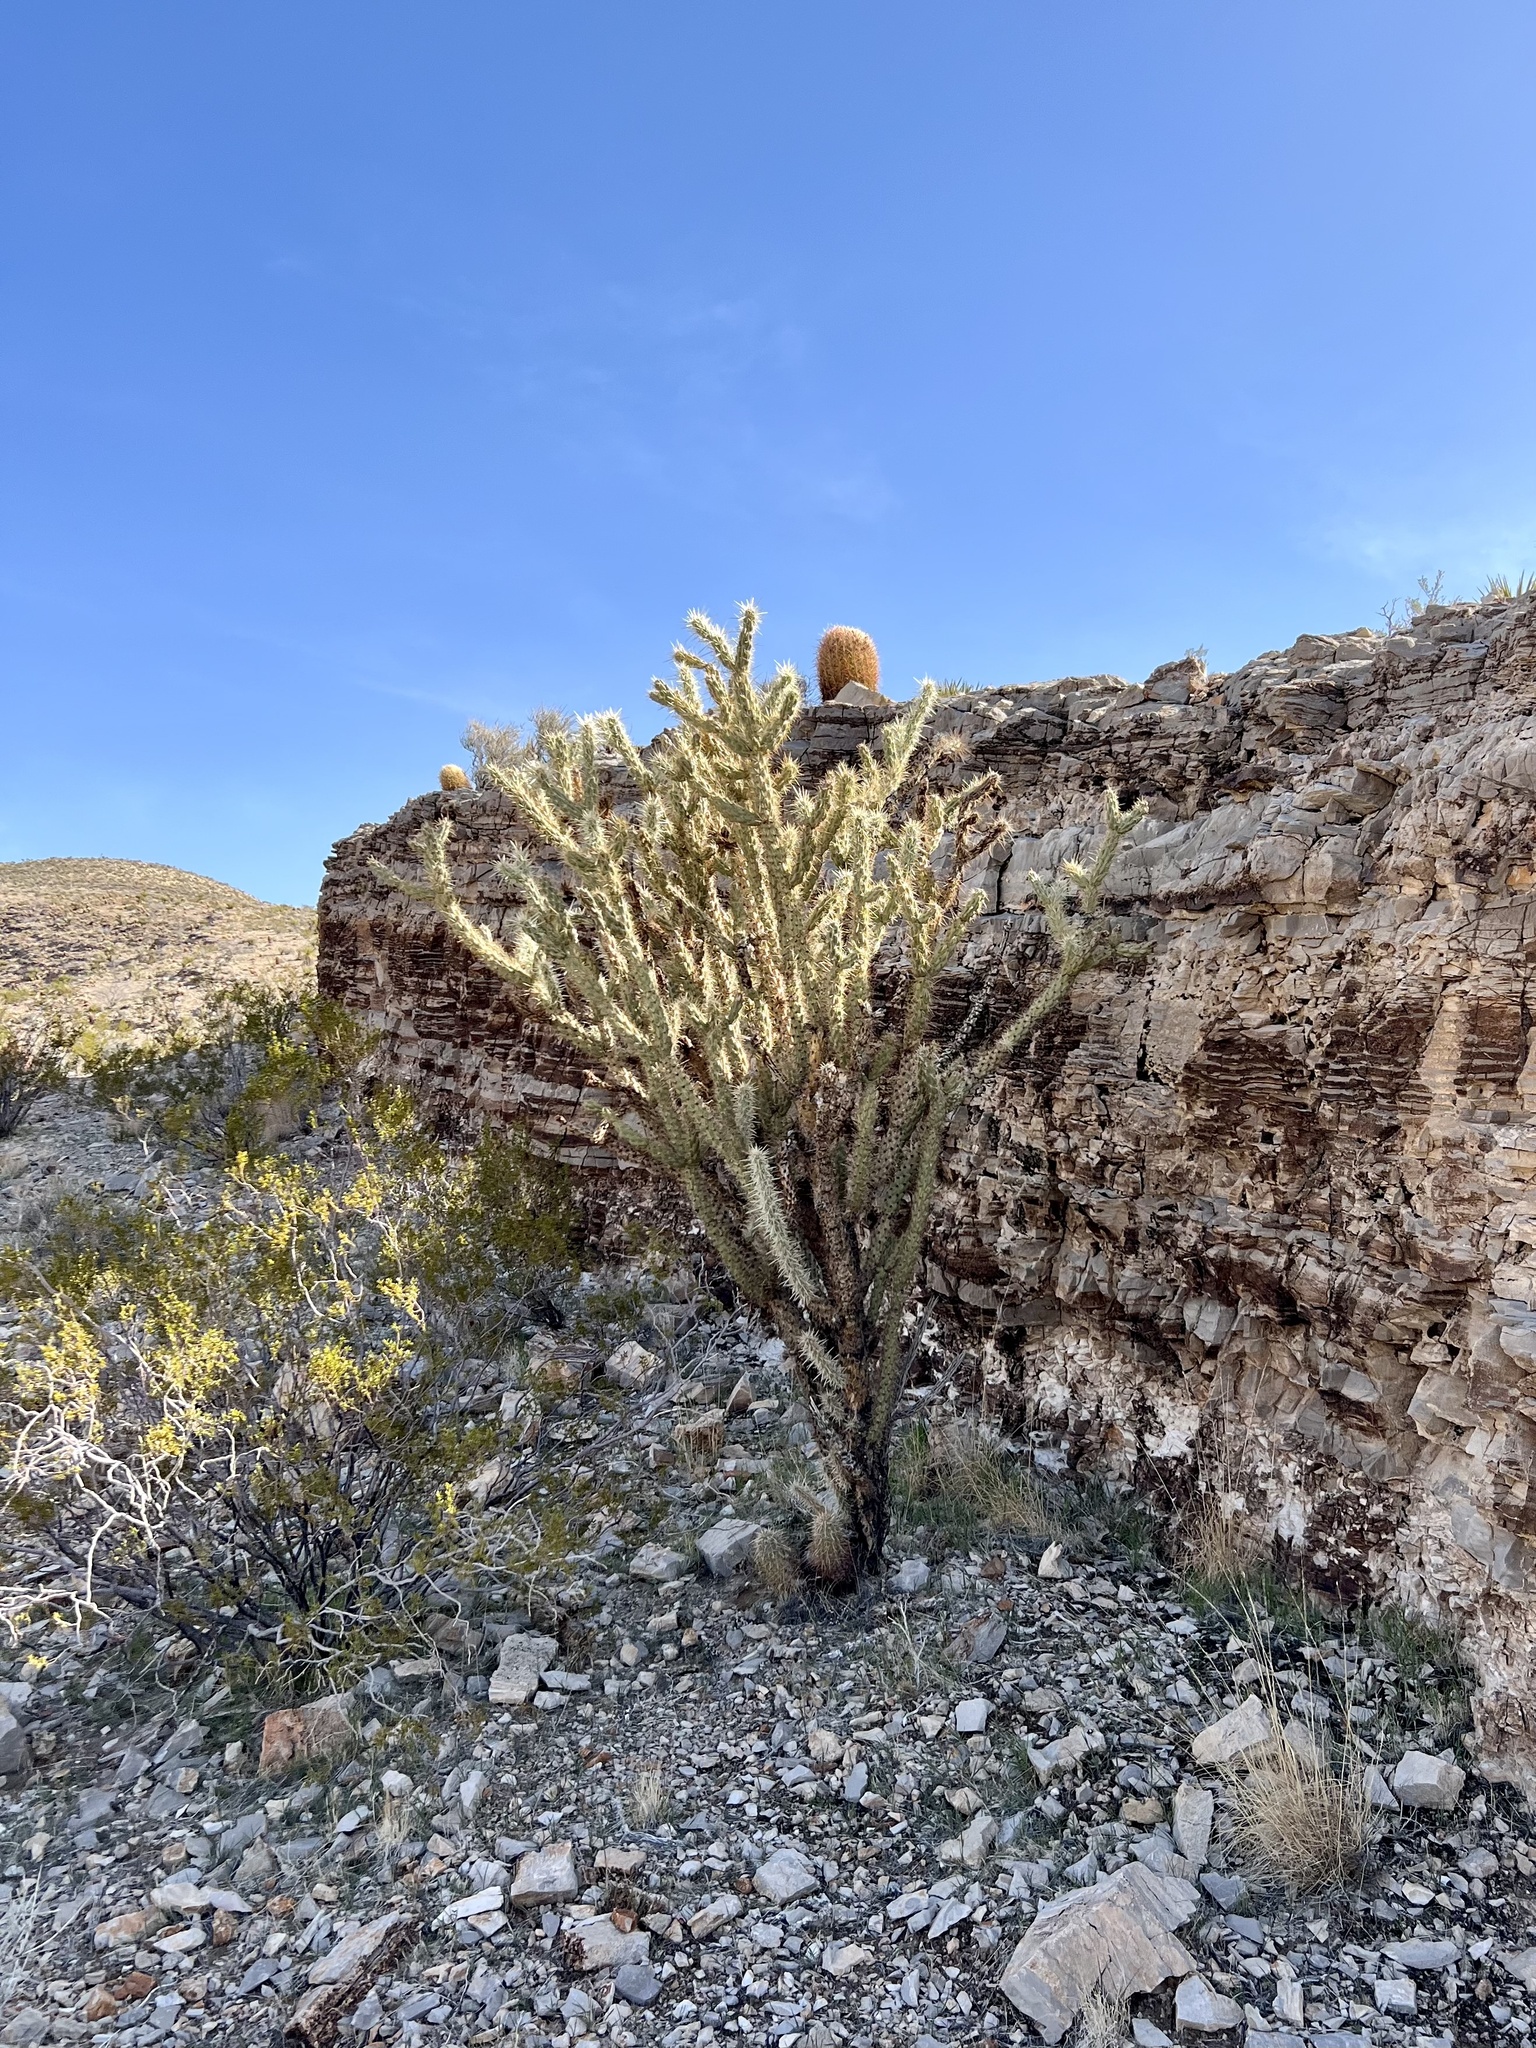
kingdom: Plantae
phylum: Tracheophyta
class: Magnoliopsida
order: Caryophyllales
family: Cactaceae
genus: Cylindropuntia
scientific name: Cylindropuntia acanthocarpa
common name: Buckhorn cholla
